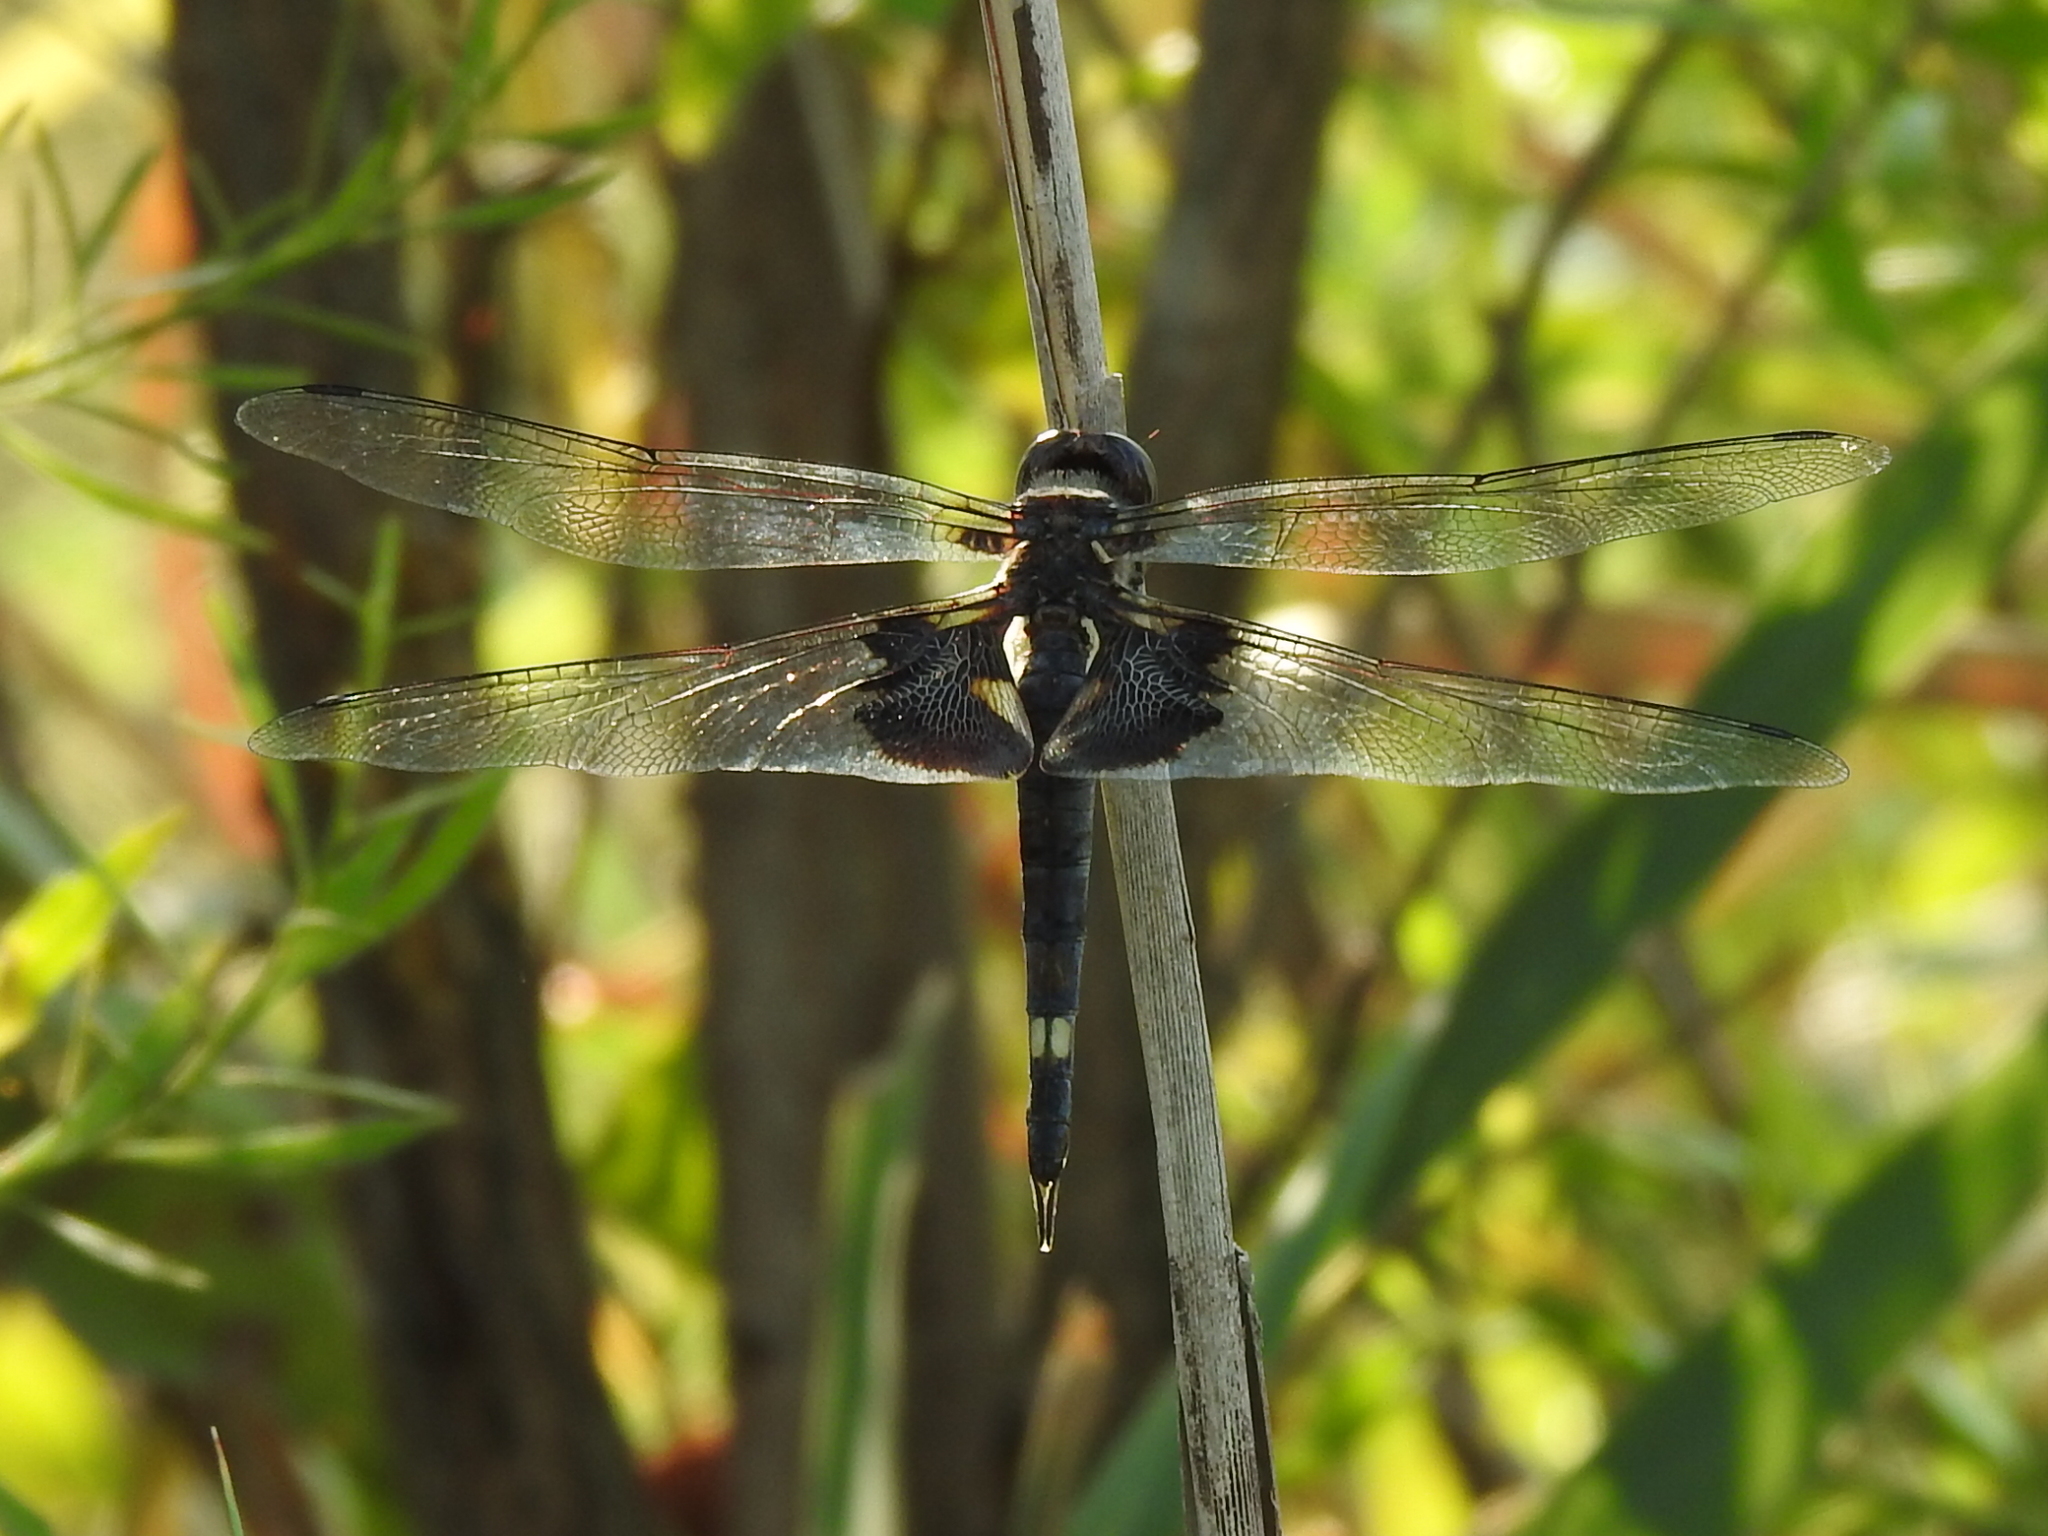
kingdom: Animalia
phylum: Arthropoda
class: Insecta
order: Odonata
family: Libellulidae
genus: Tramea
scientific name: Tramea lacerata
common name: Black saddlebags
